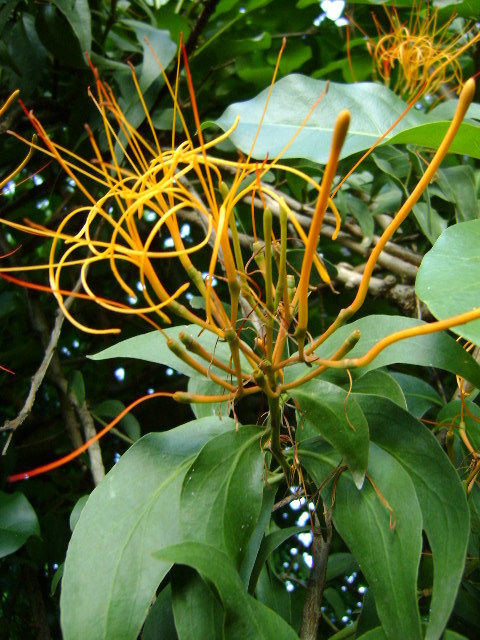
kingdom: Plantae
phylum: Tracheophyta
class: Magnoliopsida
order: Santalales
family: Loranthaceae
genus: Psittacanthus
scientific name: Psittacanthus schiedeanus
